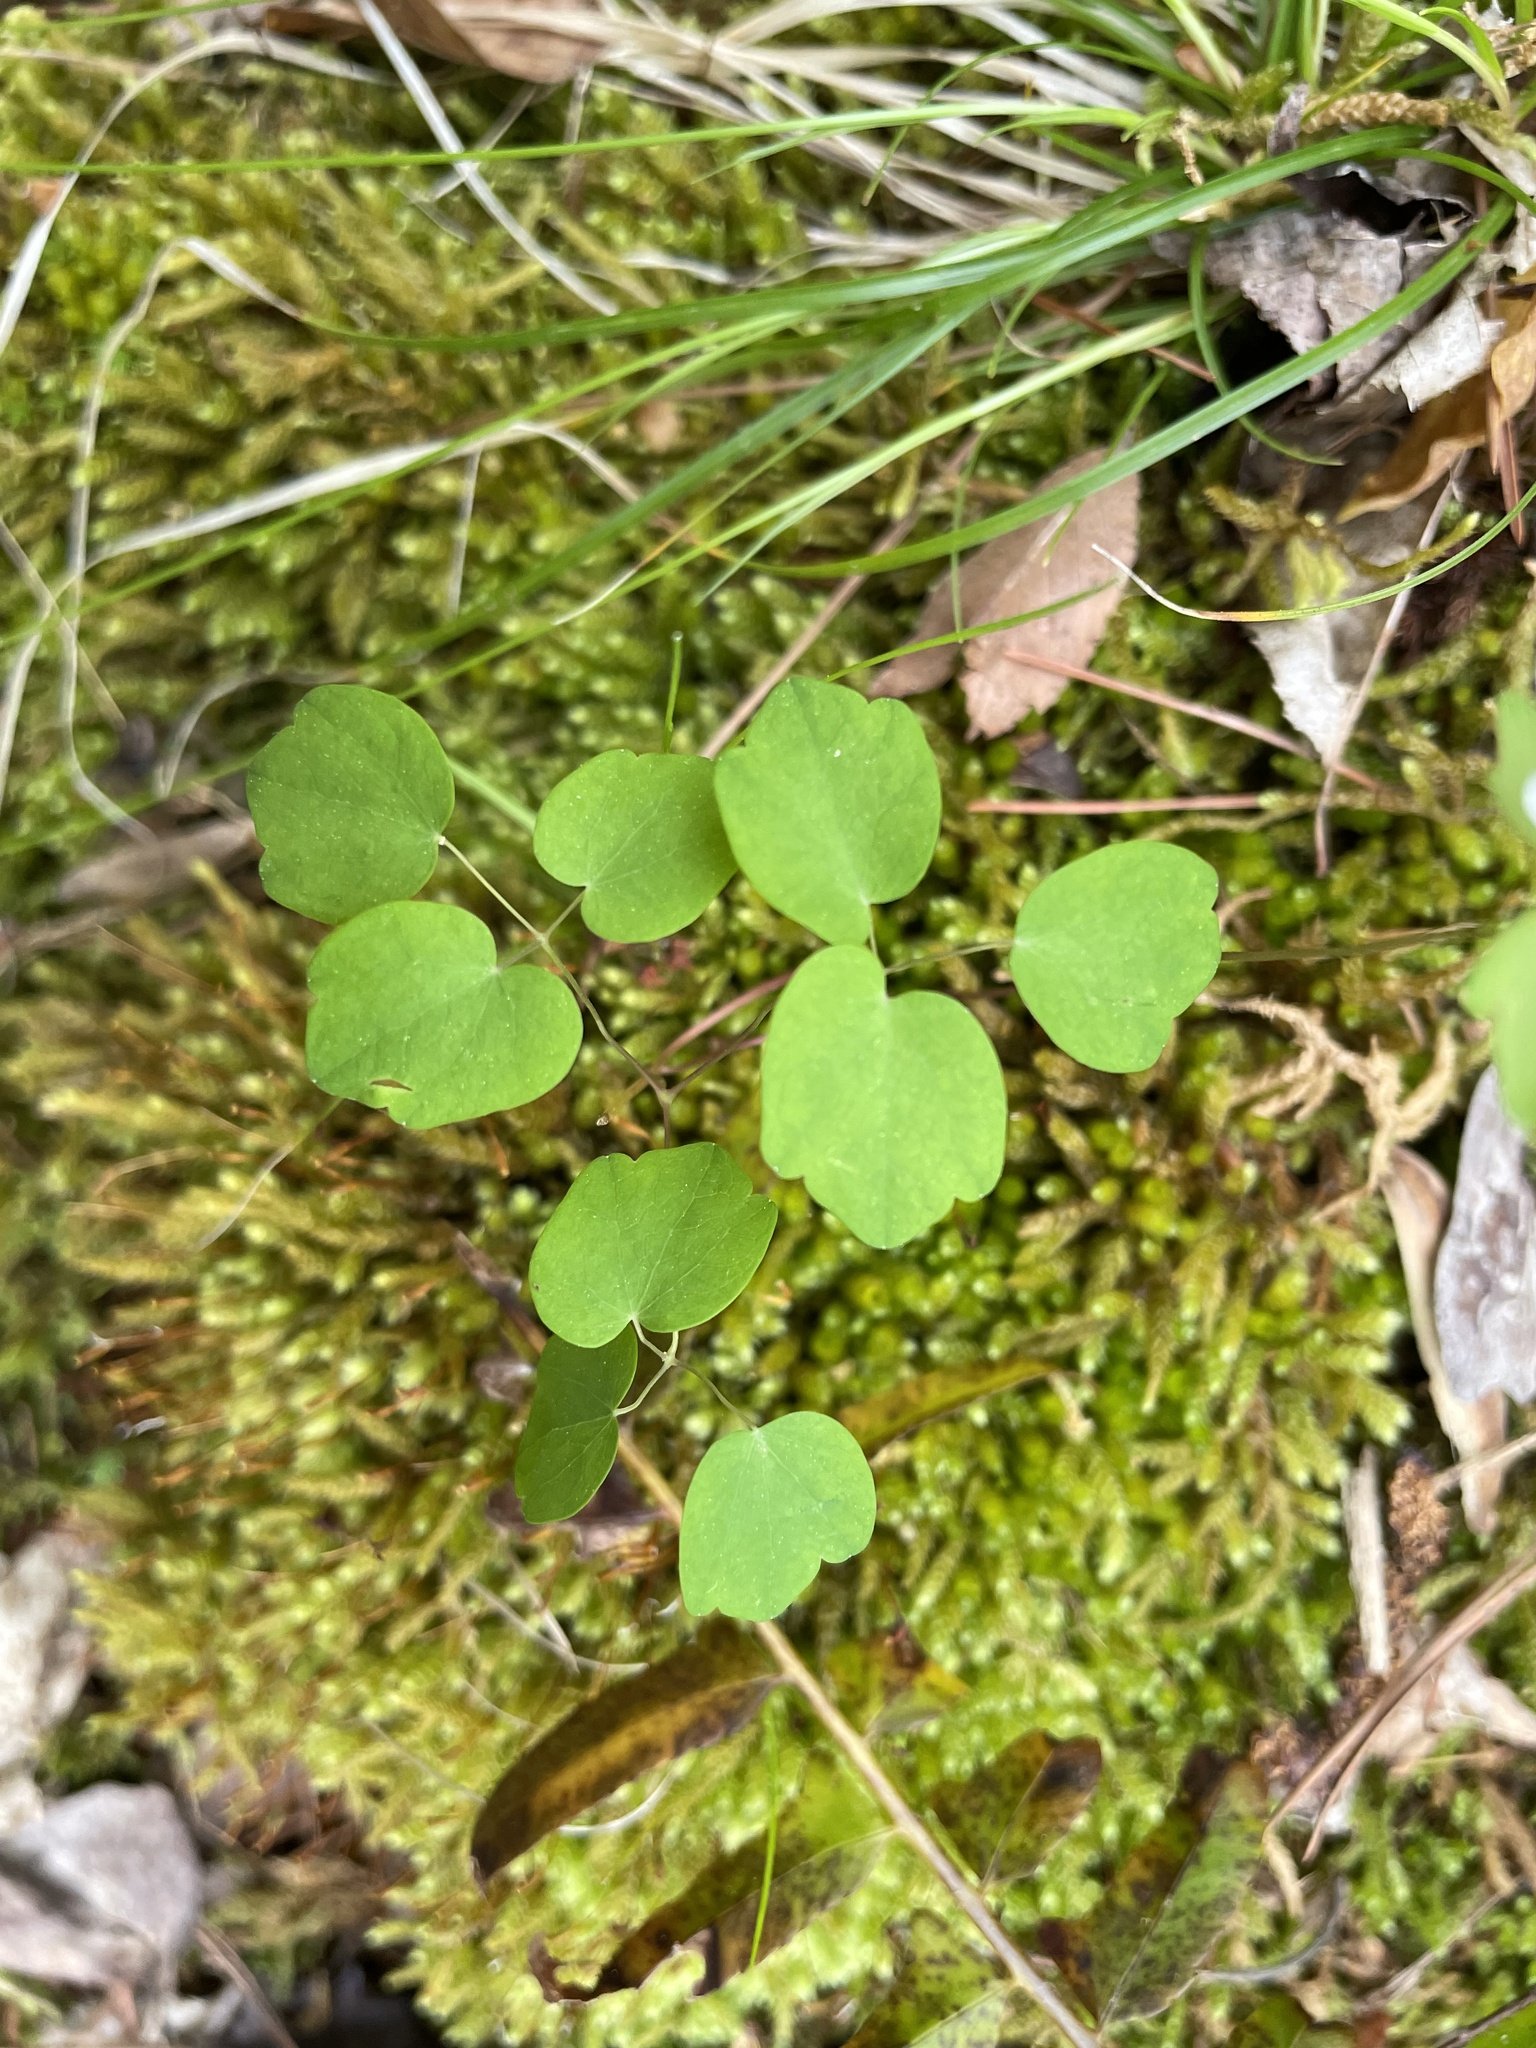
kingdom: Plantae
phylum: Tracheophyta
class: Magnoliopsida
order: Ranunculales
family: Ranunculaceae
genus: Thalictrum
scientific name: Thalictrum thalictroides
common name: Rue-anemone
